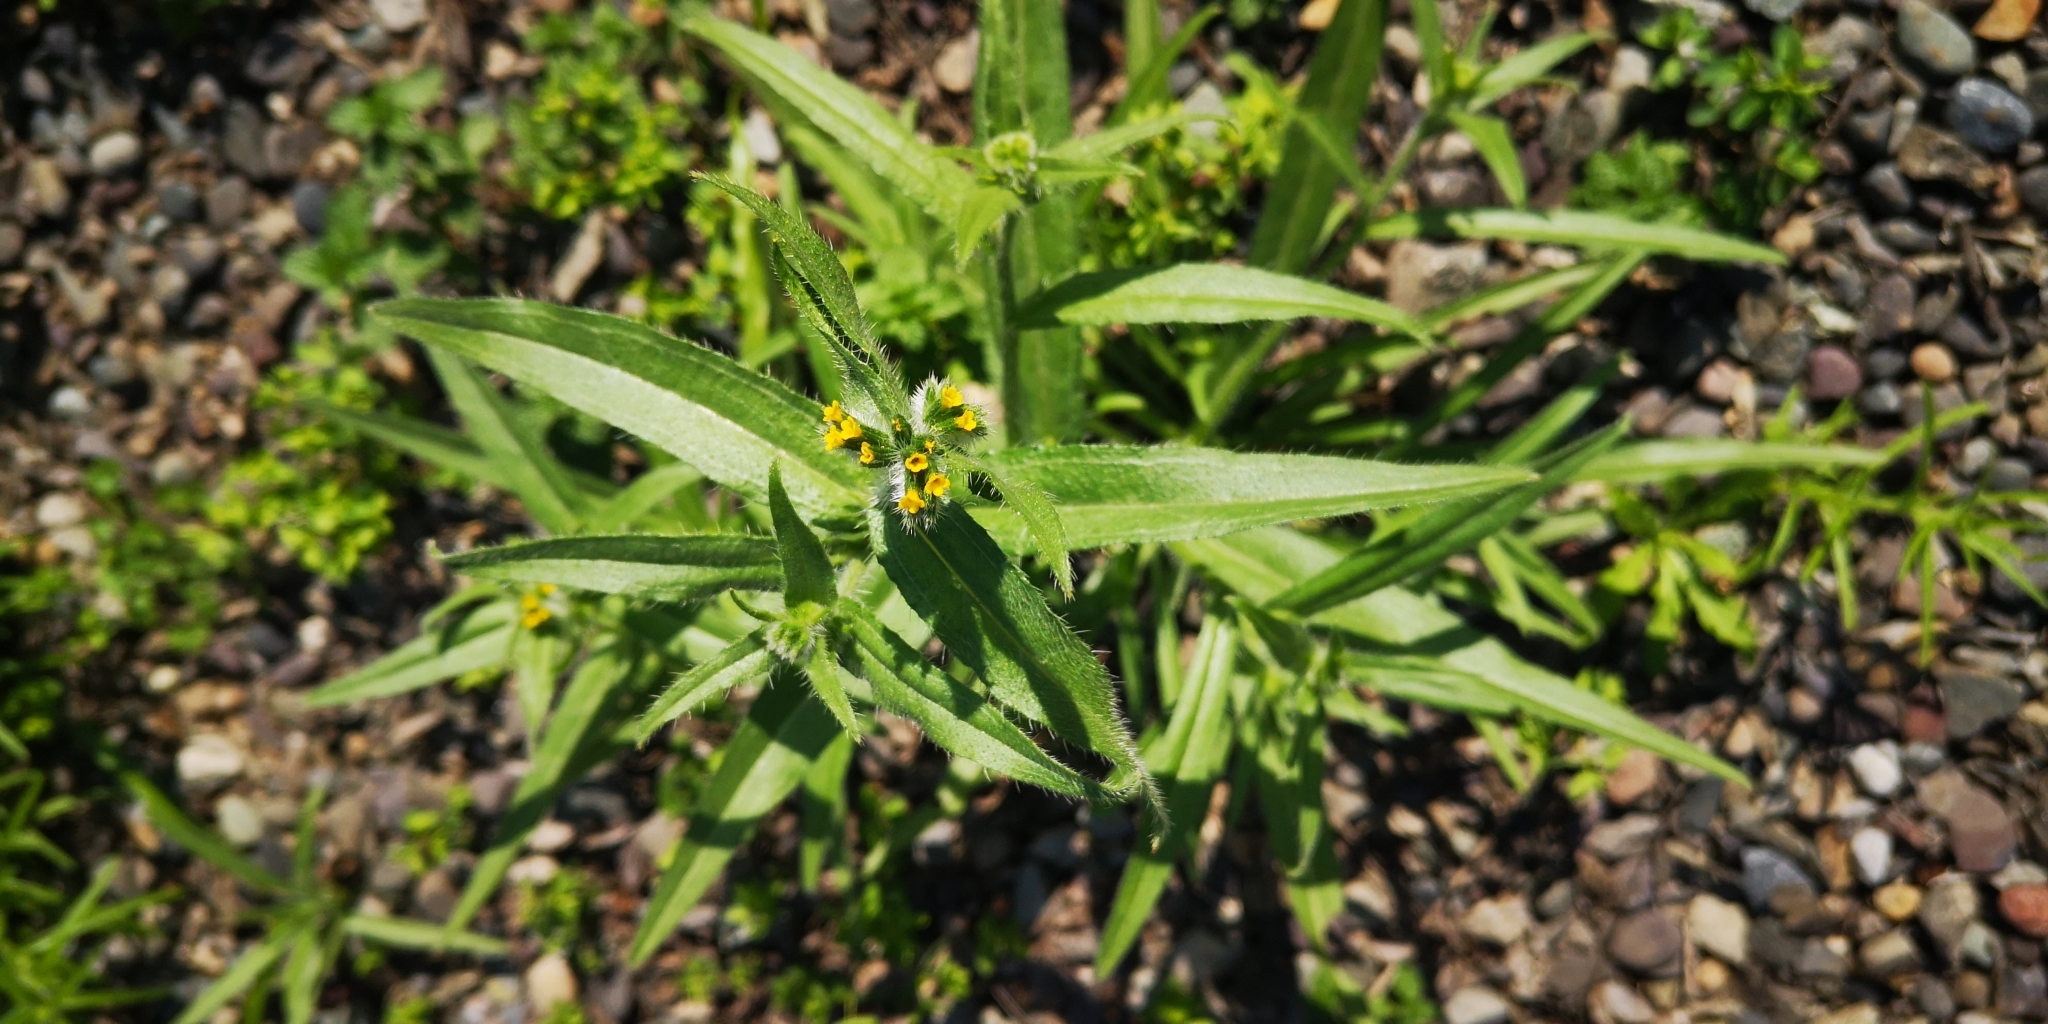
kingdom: Plantae
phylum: Tracheophyta
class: Magnoliopsida
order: Boraginales
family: Boraginaceae
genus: Amsinckia
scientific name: Amsinckia calycina
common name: Hairy fiddleneck
